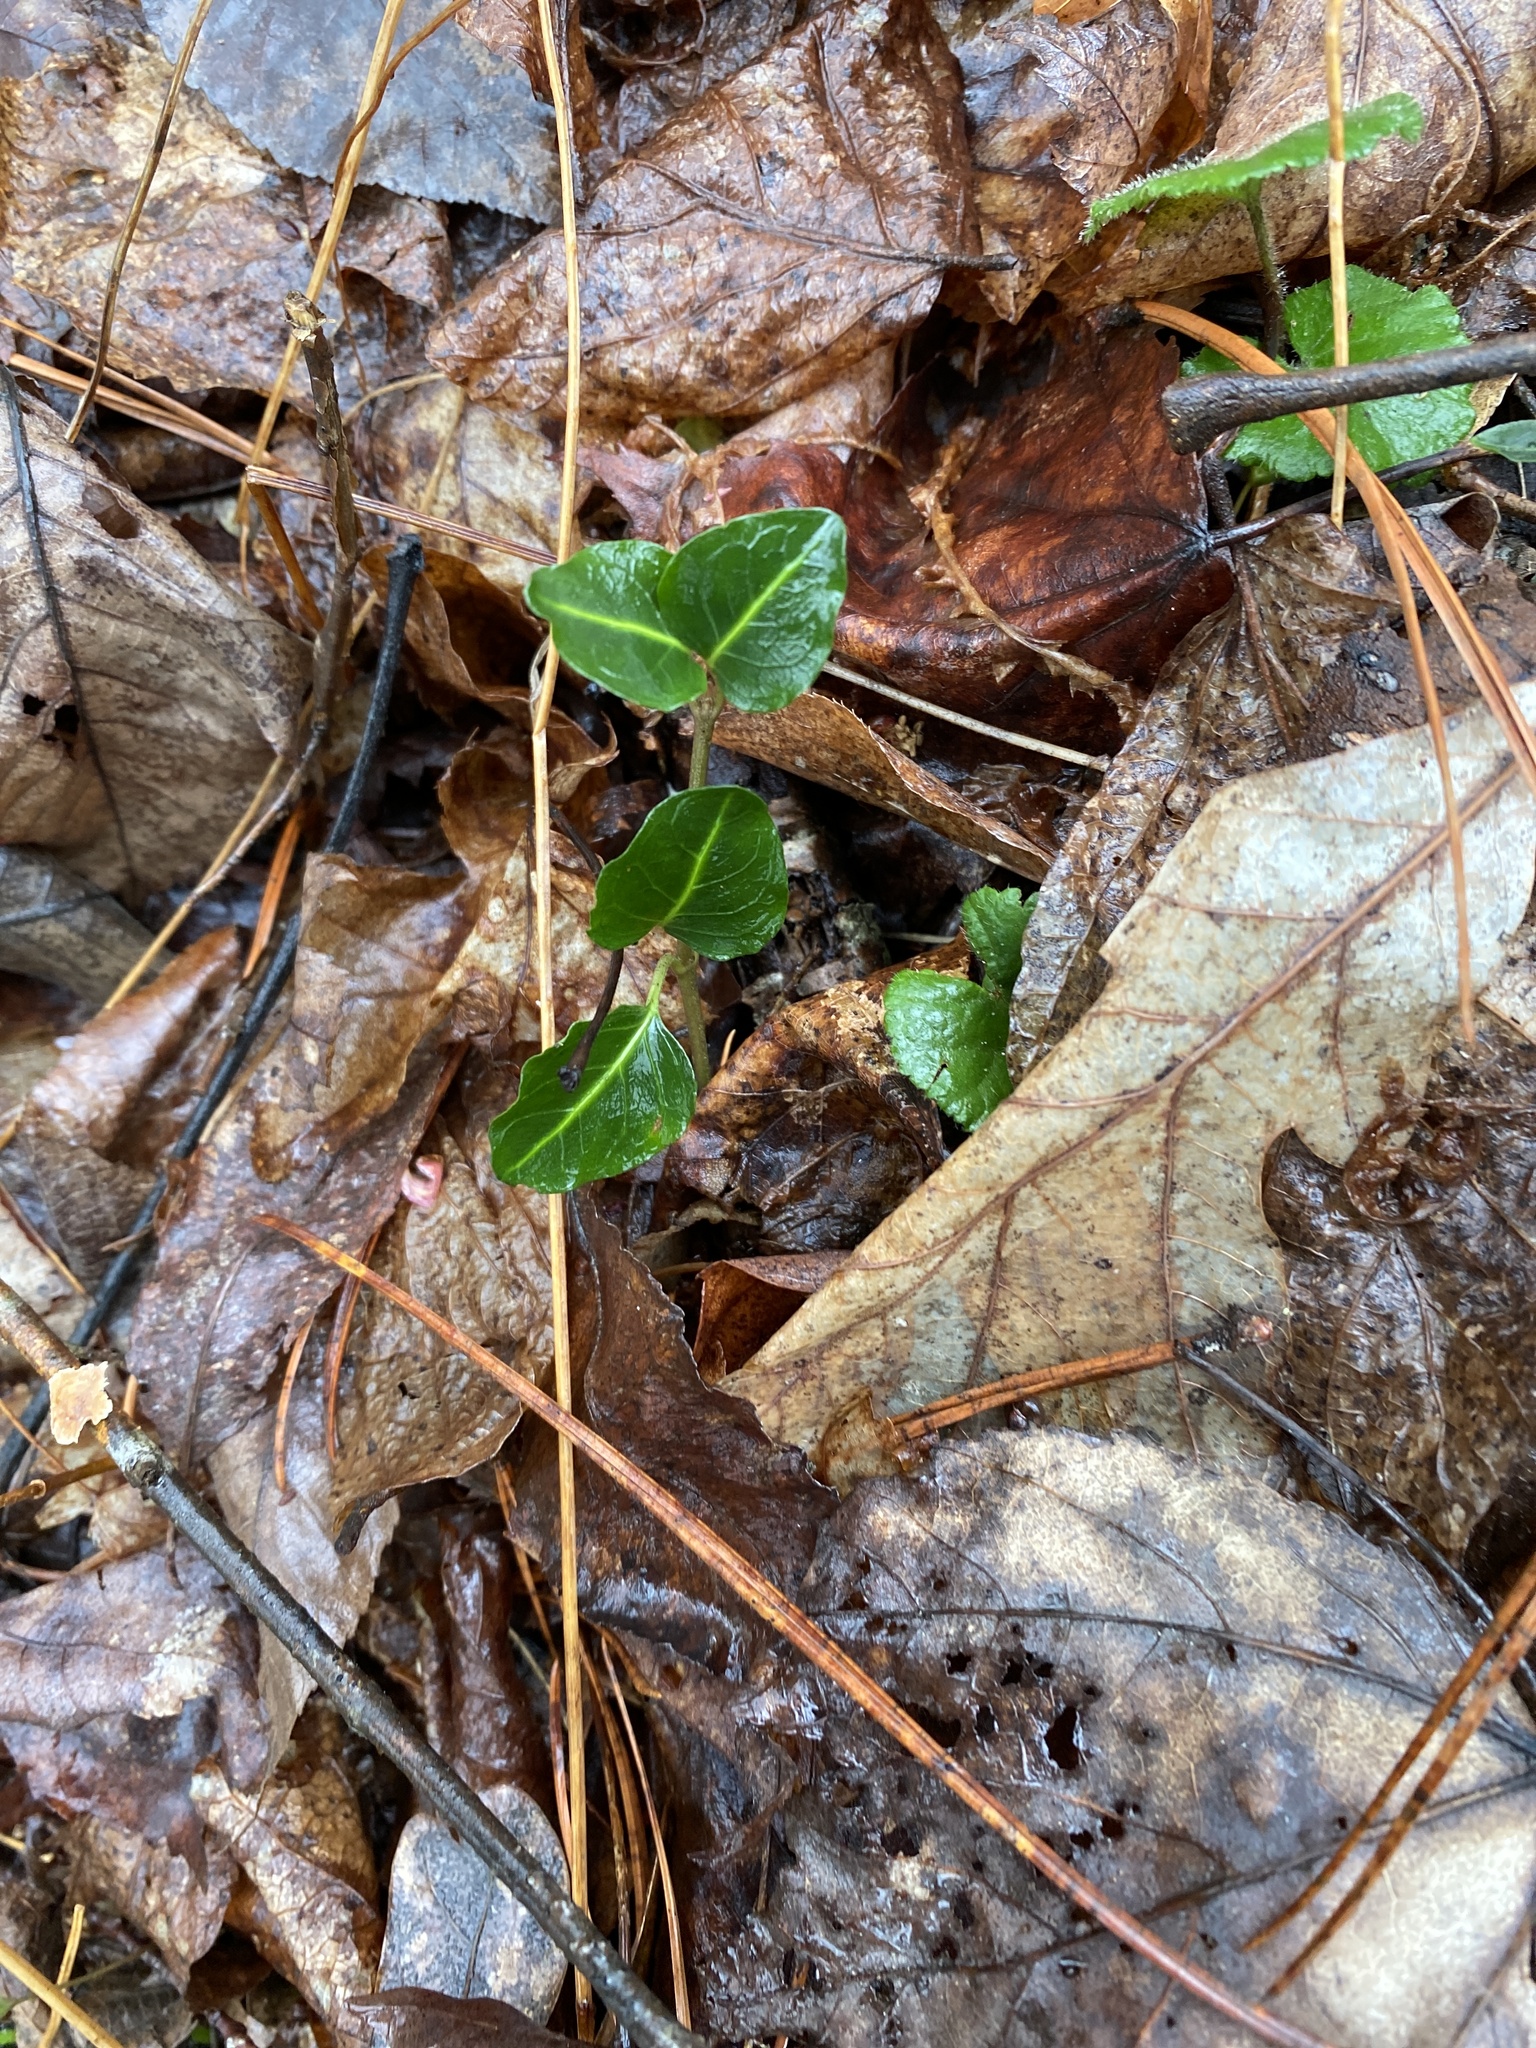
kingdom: Plantae
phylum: Tracheophyta
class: Magnoliopsida
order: Gentianales
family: Rubiaceae
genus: Mitchella
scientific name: Mitchella repens
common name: Partridge-berry
